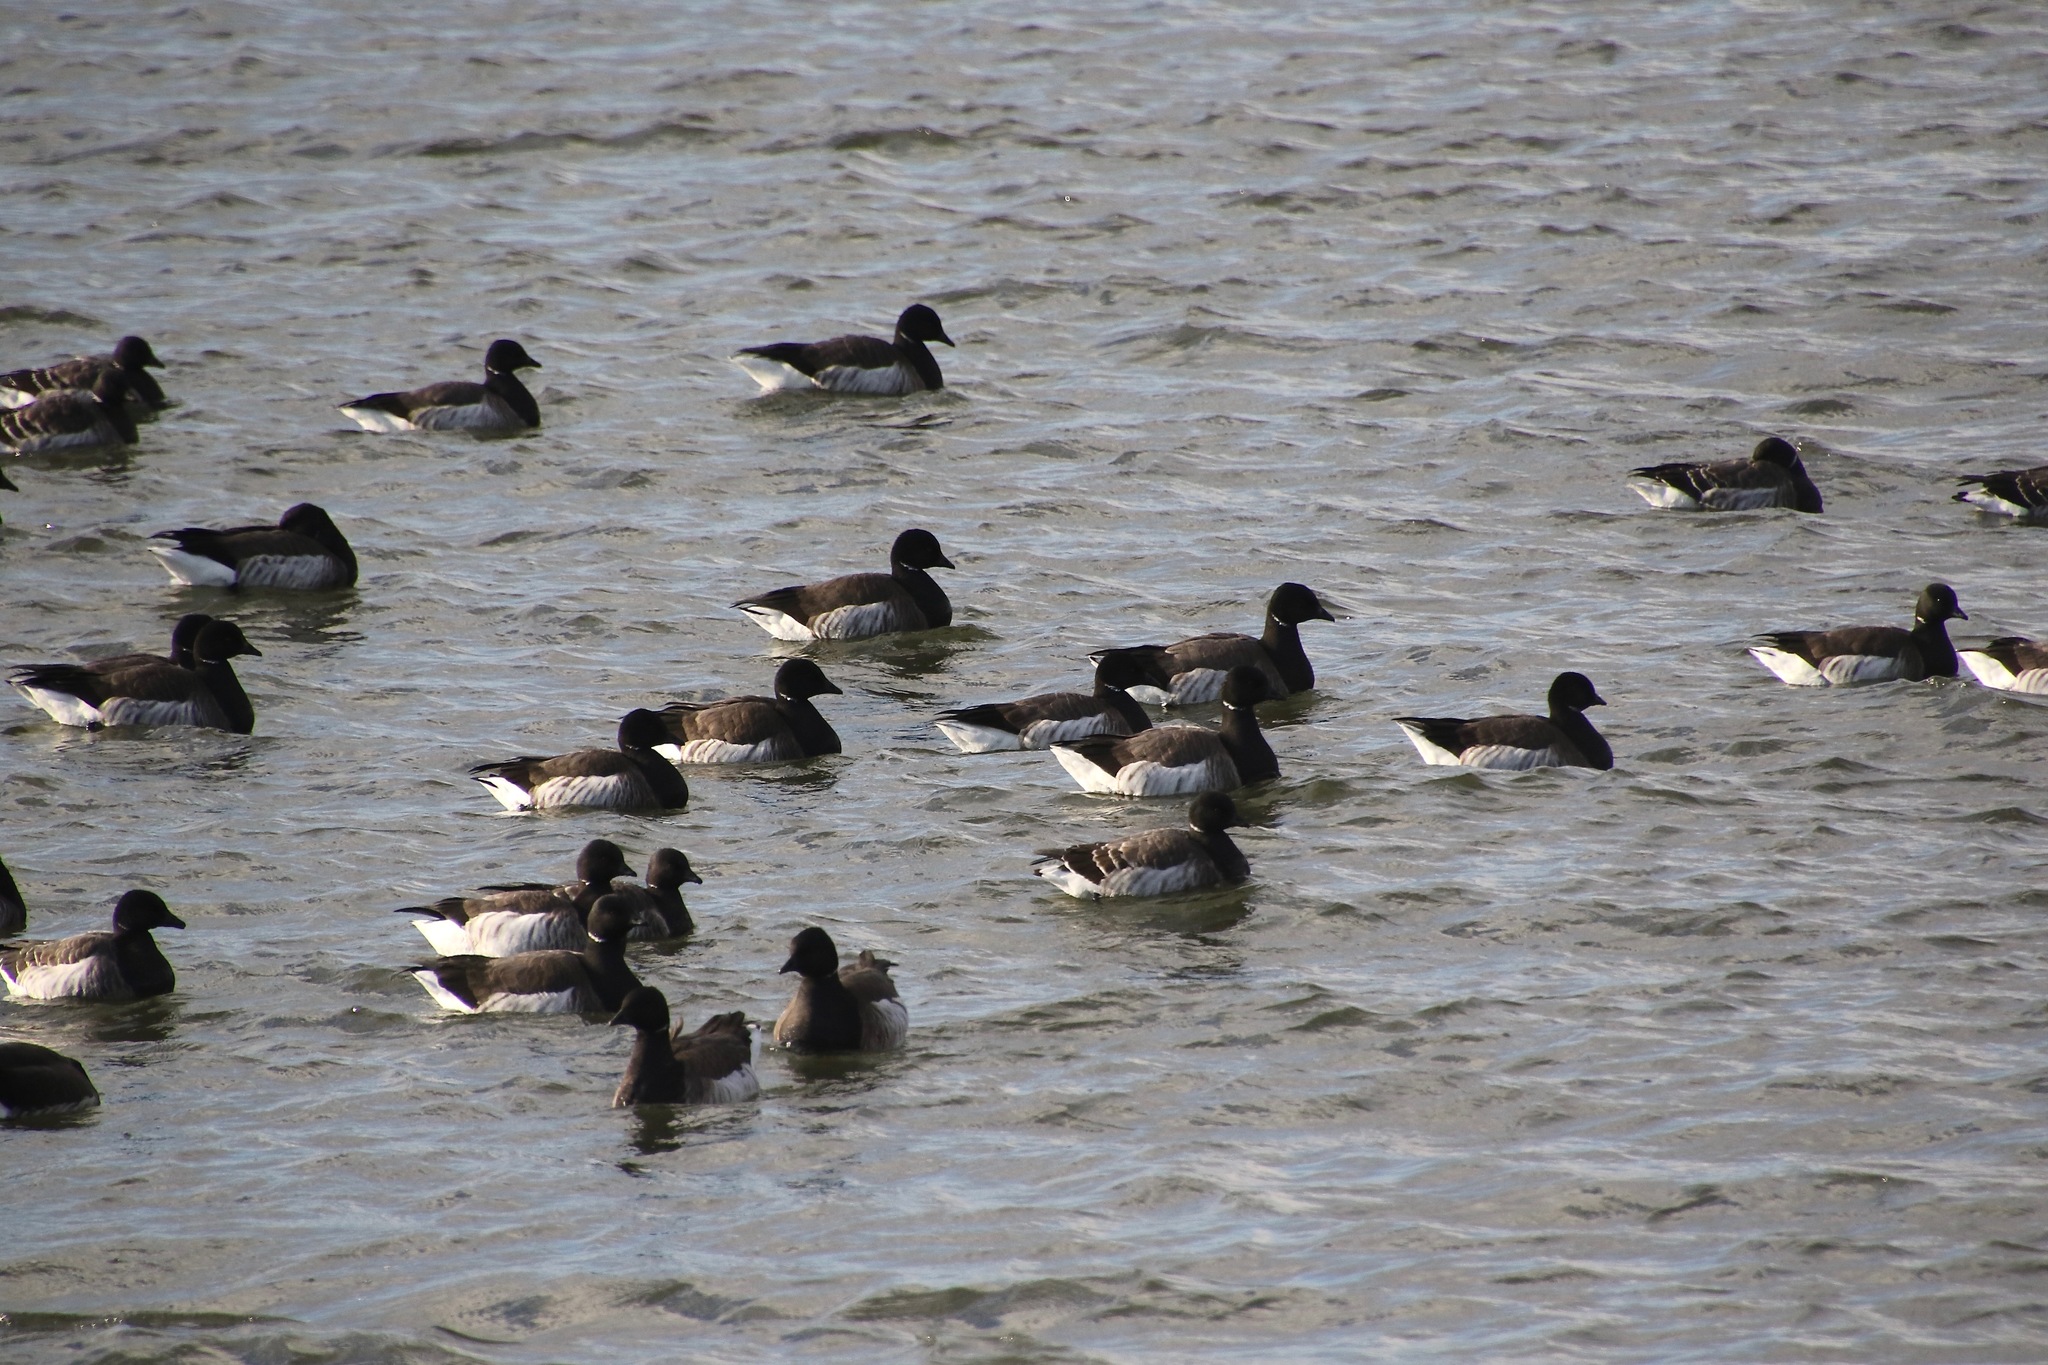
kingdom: Animalia
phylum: Chordata
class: Aves
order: Anseriformes
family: Anatidae
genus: Branta
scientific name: Branta bernicla
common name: Brant goose
